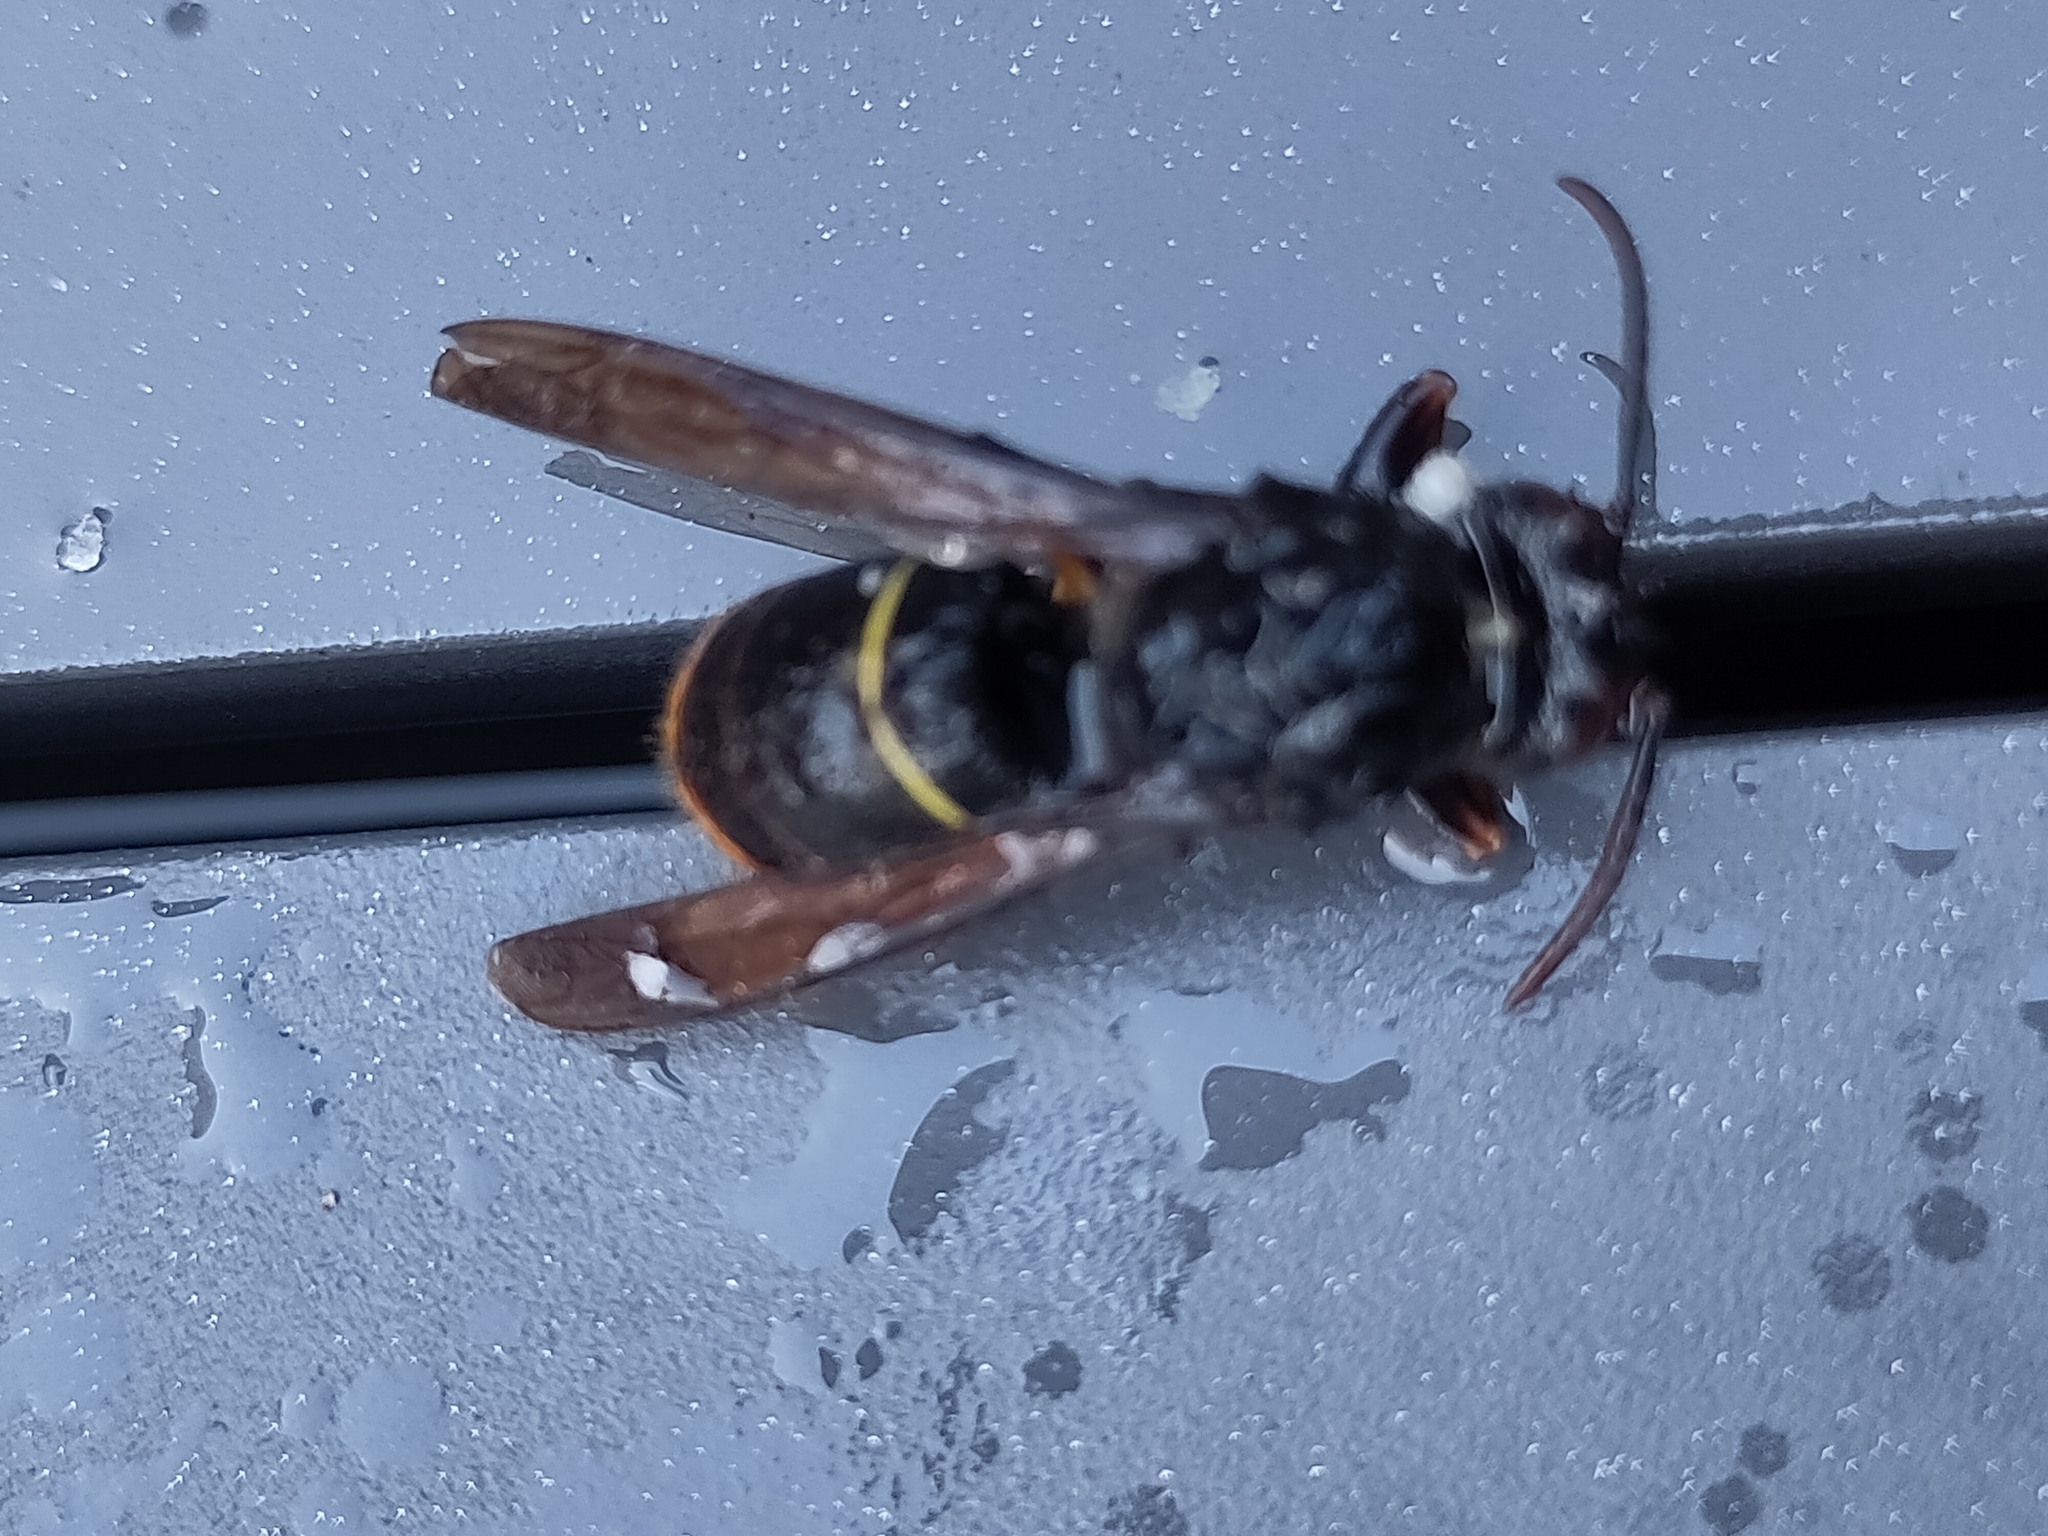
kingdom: Animalia
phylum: Arthropoda
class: Insecta
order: Hymenoptera
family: Vespidae
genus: Vespa
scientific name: Vespa velutina
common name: Asian hornet
